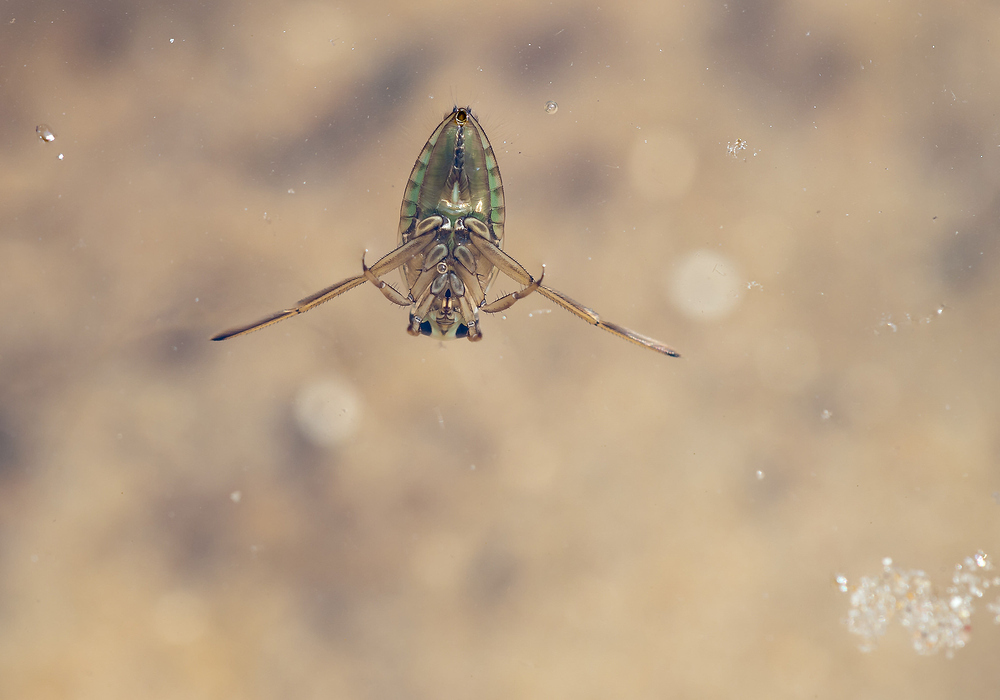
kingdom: Animalia
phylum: Arthropoda
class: Insecta
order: Hemiptera
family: Notonectidae
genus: Notonecta
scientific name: Notonecta
